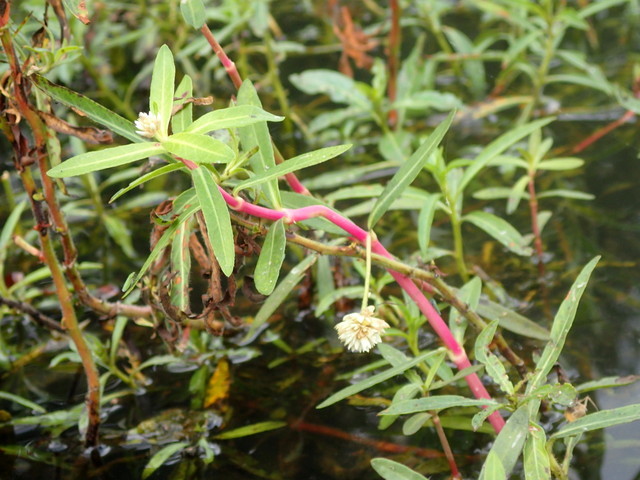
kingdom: Plantae
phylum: Tracheophyta
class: Magnoliopsida
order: Caryophyllales
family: Amaranthaceae
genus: Alternanthera
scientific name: Alternanthera philoxeroides
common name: Alligatorweed
